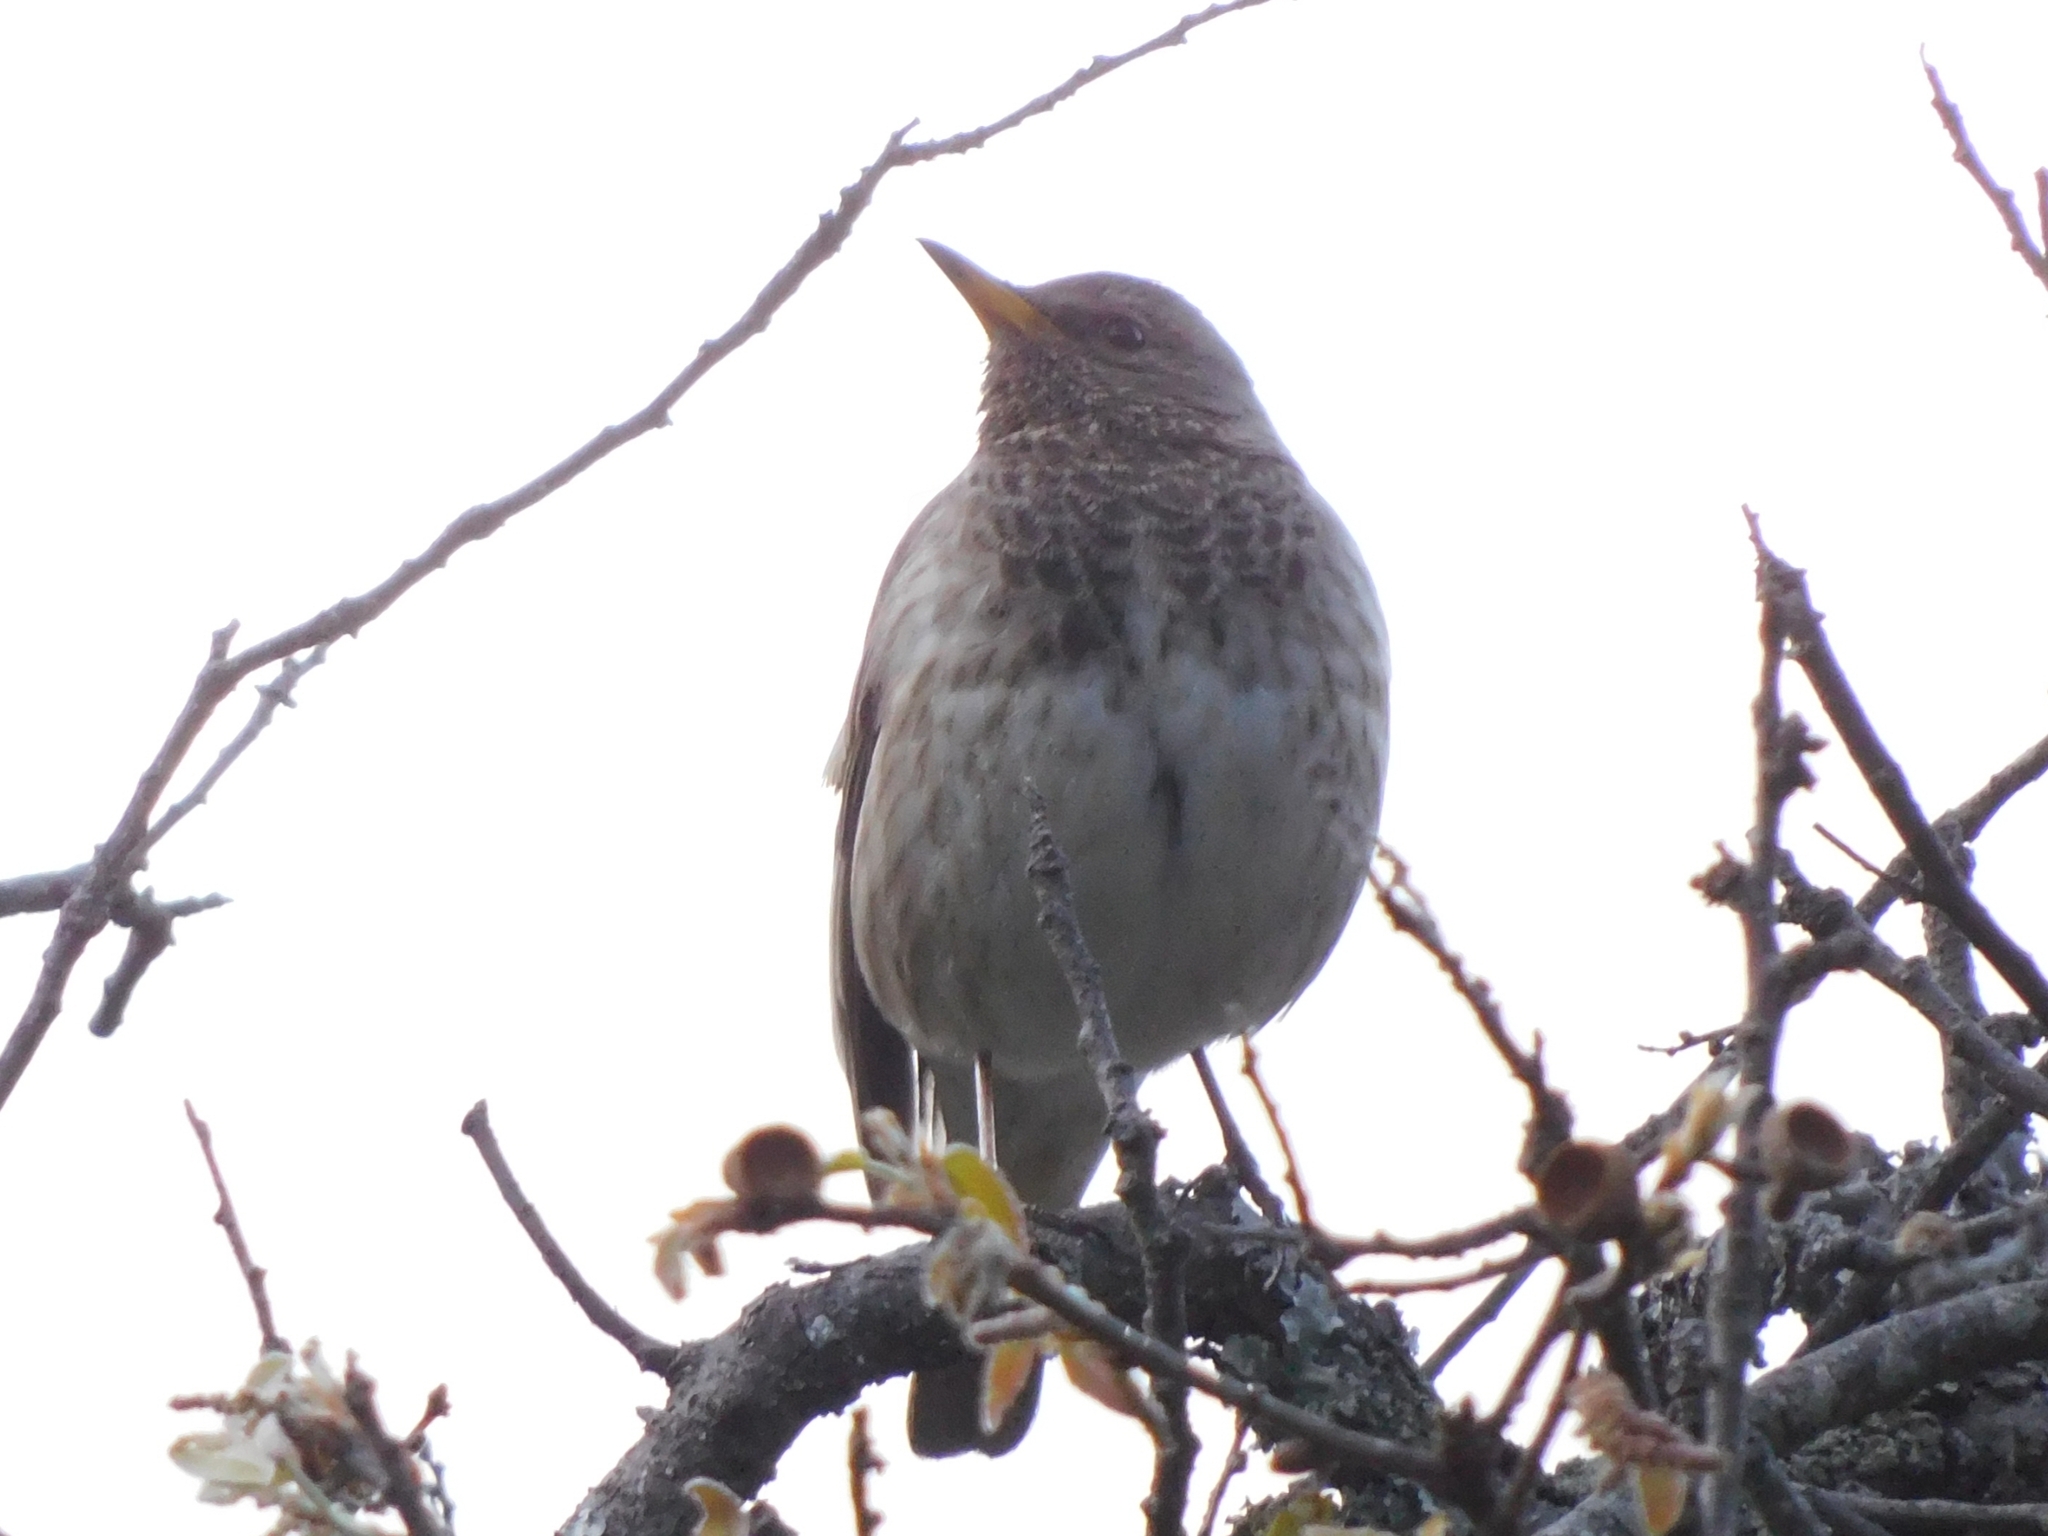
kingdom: Animalia
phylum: Chordata
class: Aves
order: Passeriformes
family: Turdidae
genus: Turdus
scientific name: Turdus atrogularis
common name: Black-throated thrush
